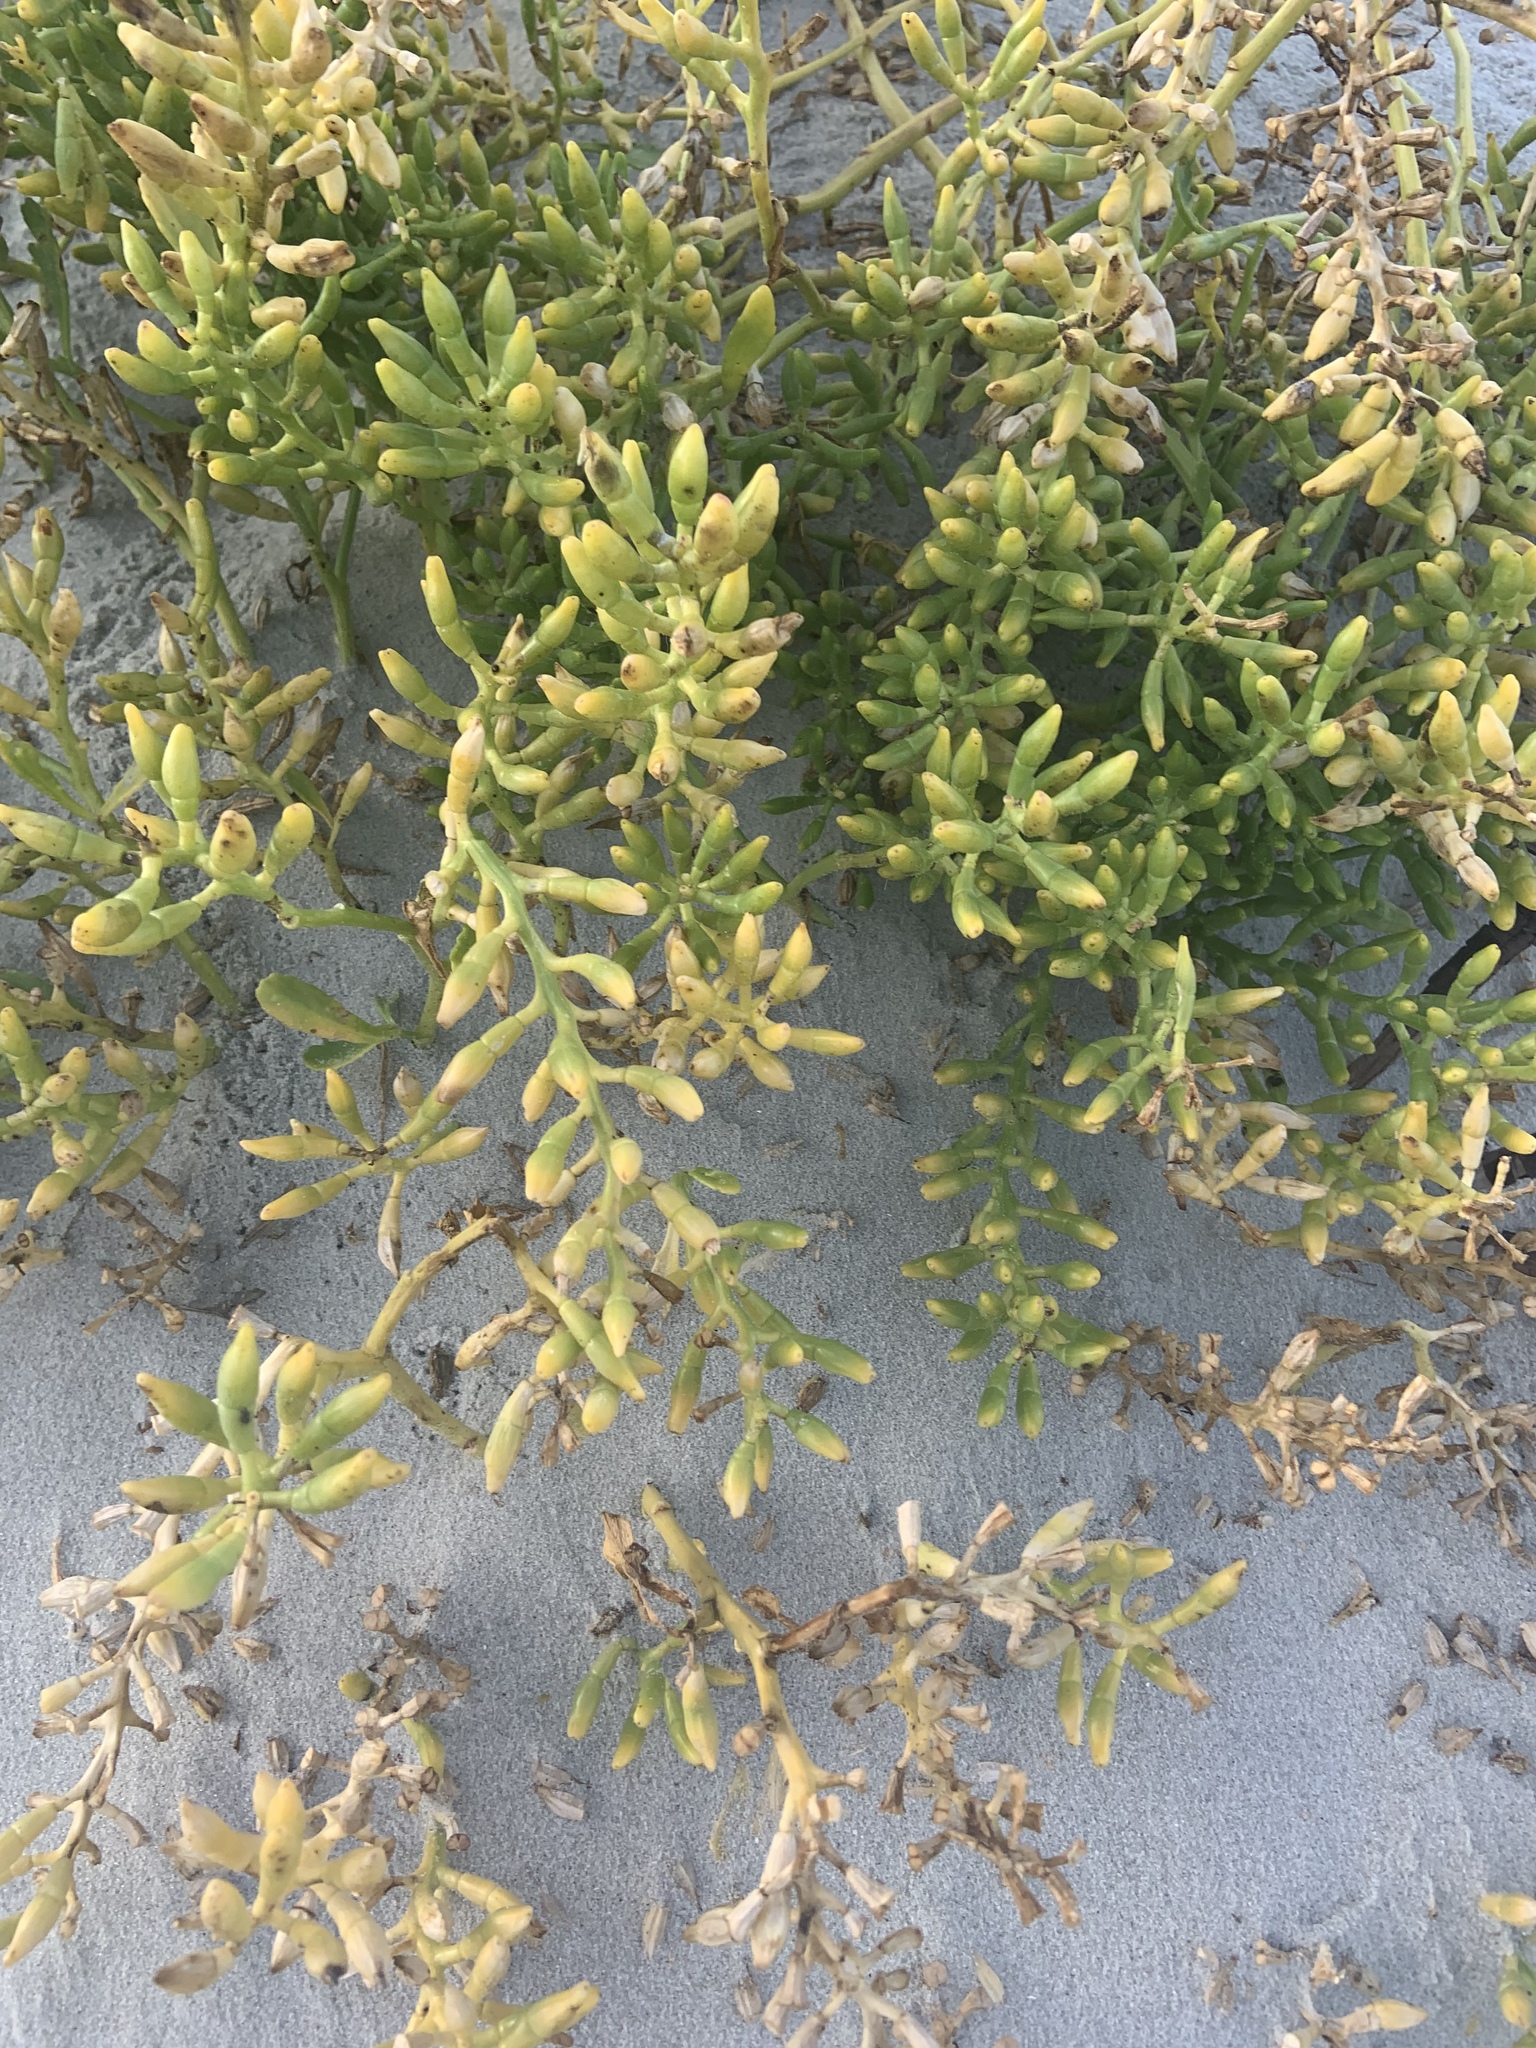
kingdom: Plantae
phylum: Tracheophyta
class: Magnoliopsida
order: Brassicales
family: Brassicaceae
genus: Cakile
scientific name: Cakile edentula
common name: American sea rocket
